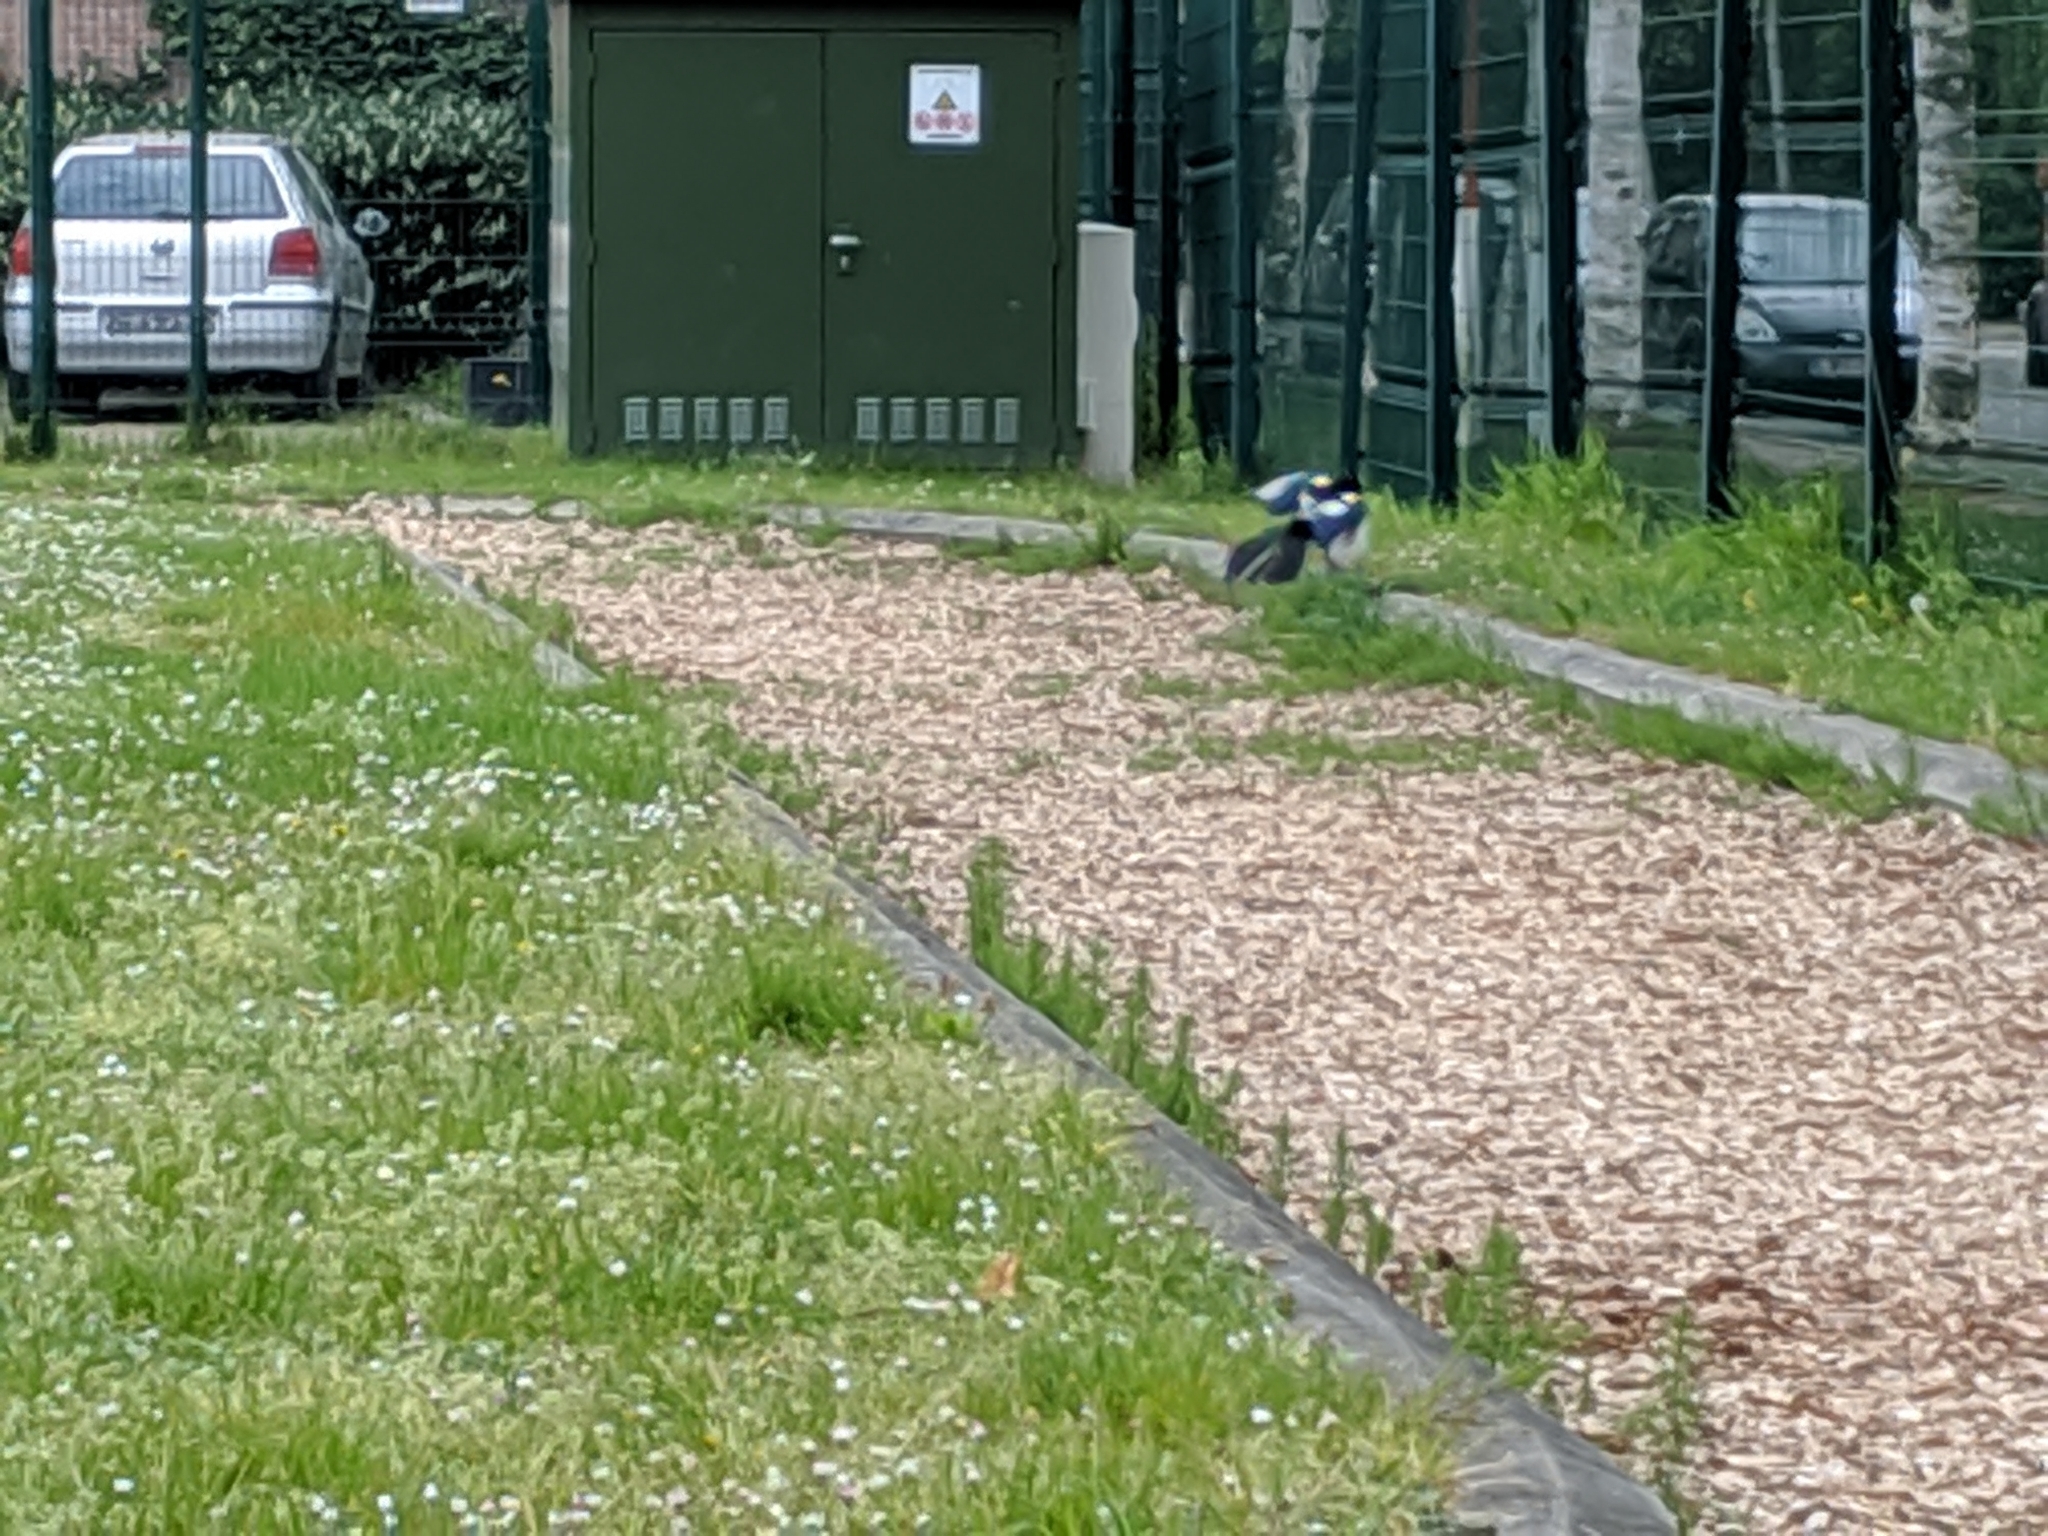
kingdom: Animalia
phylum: Chordata
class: Aves
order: Passeriformes
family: Corvidae
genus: Pica
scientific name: Pica pica
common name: Eurasian magpie
